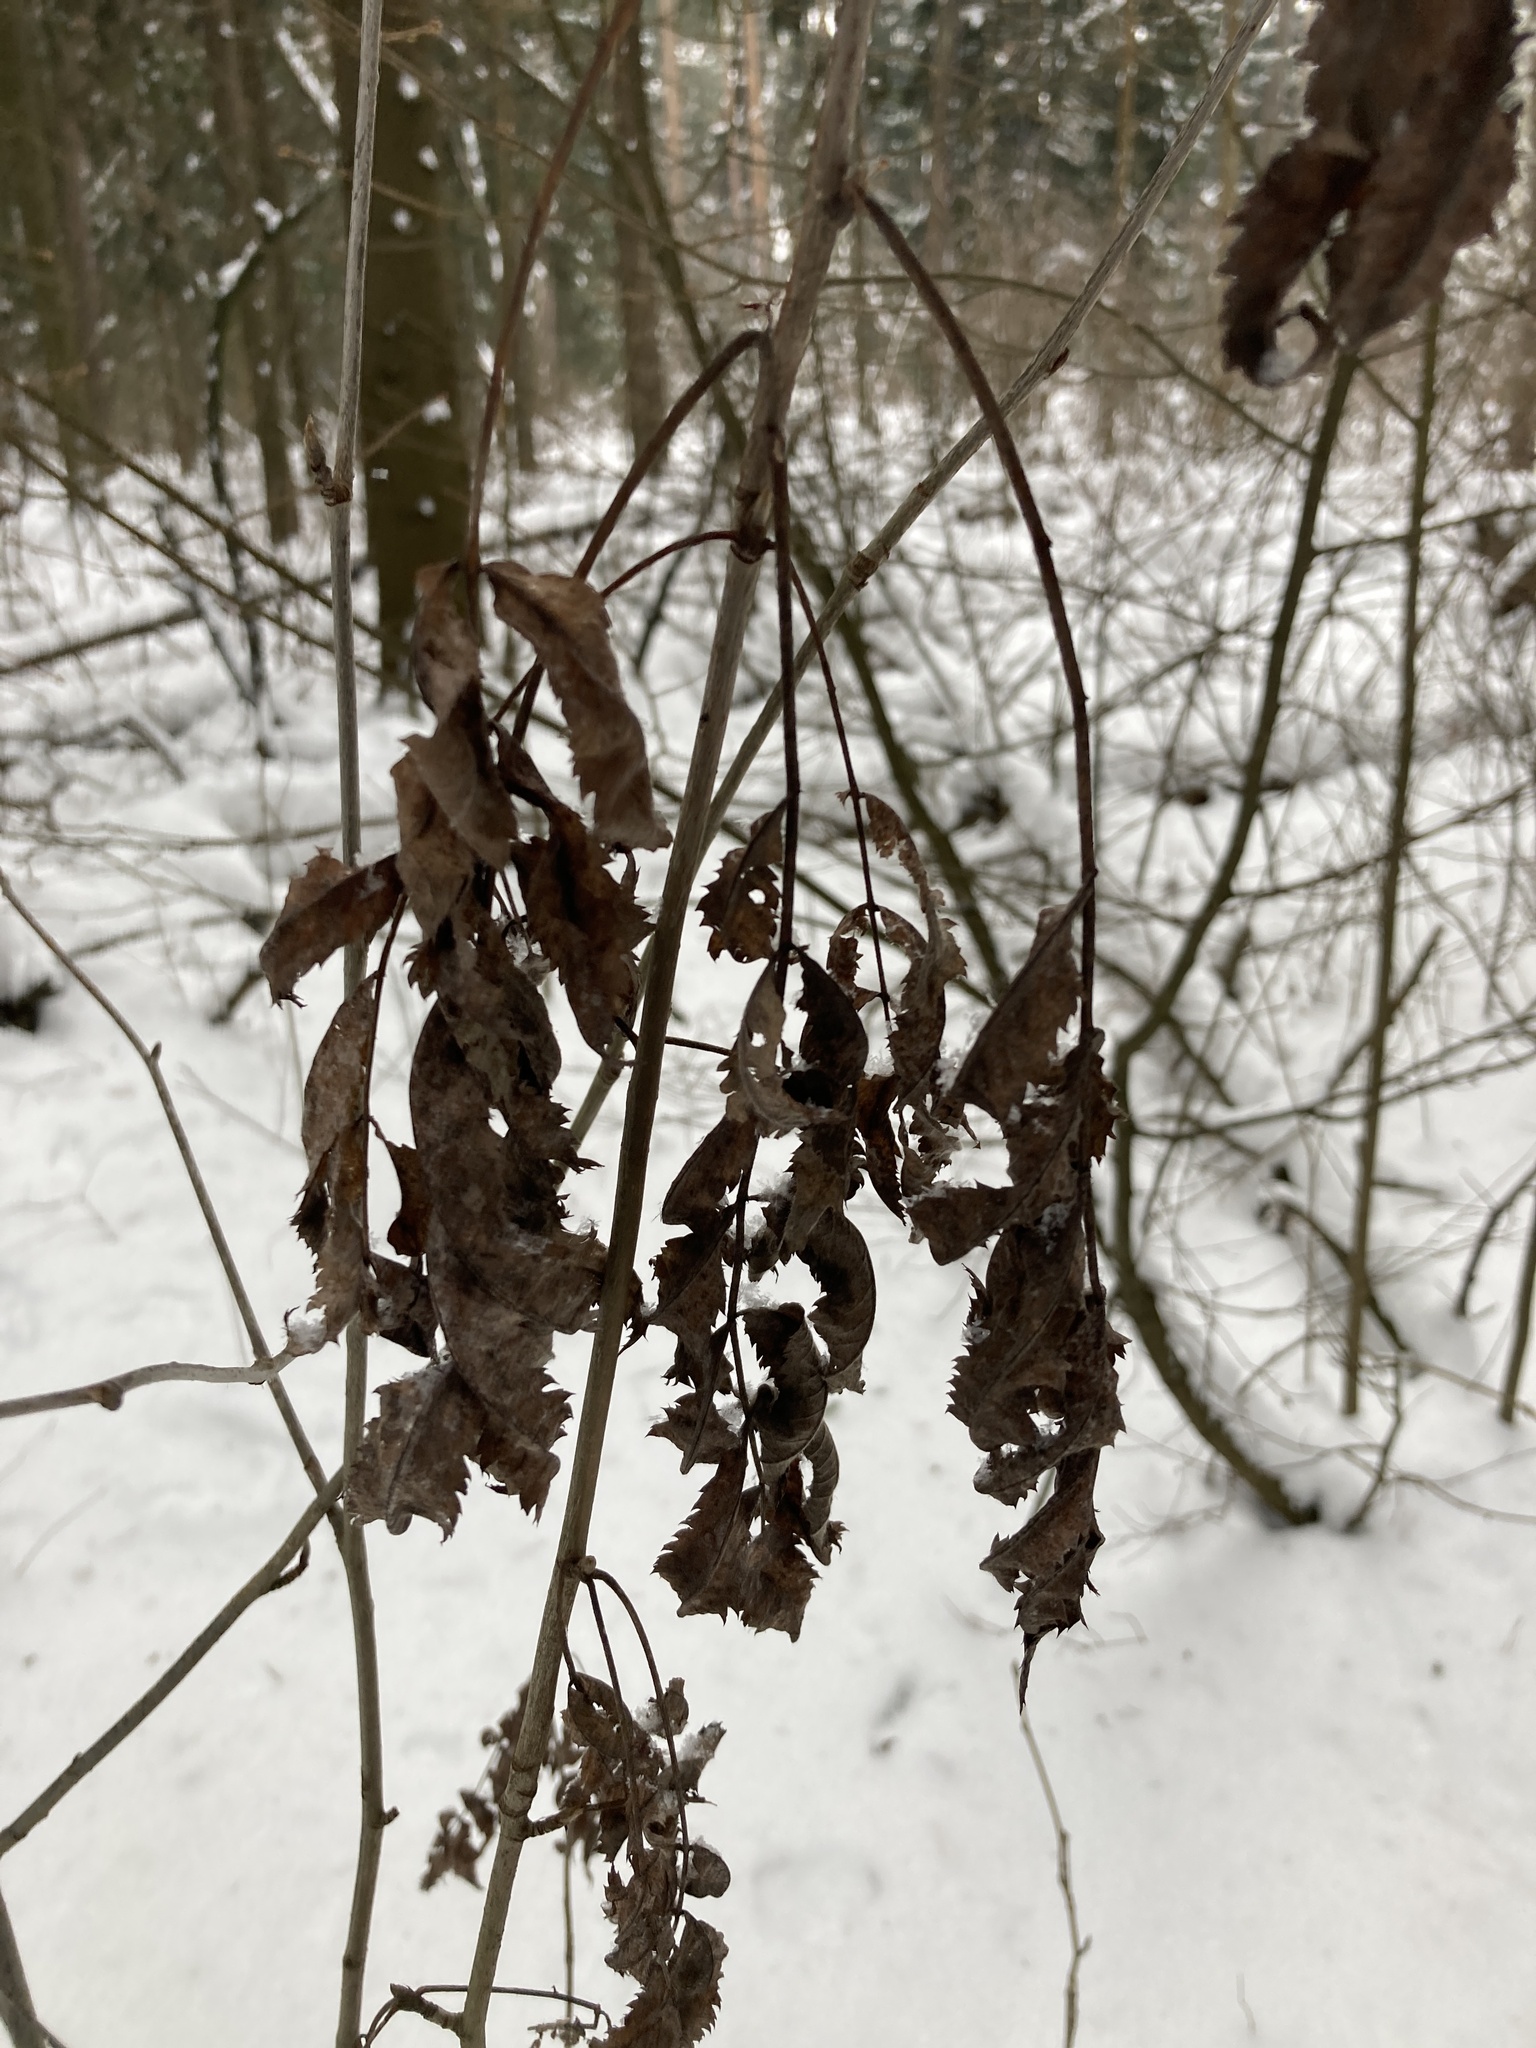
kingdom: Plantae
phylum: Tracheophyta
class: Magnoliopsida
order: Rosales
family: Rosaceae
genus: Sorbus
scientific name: Sorbus aucuparia
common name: Rowan
